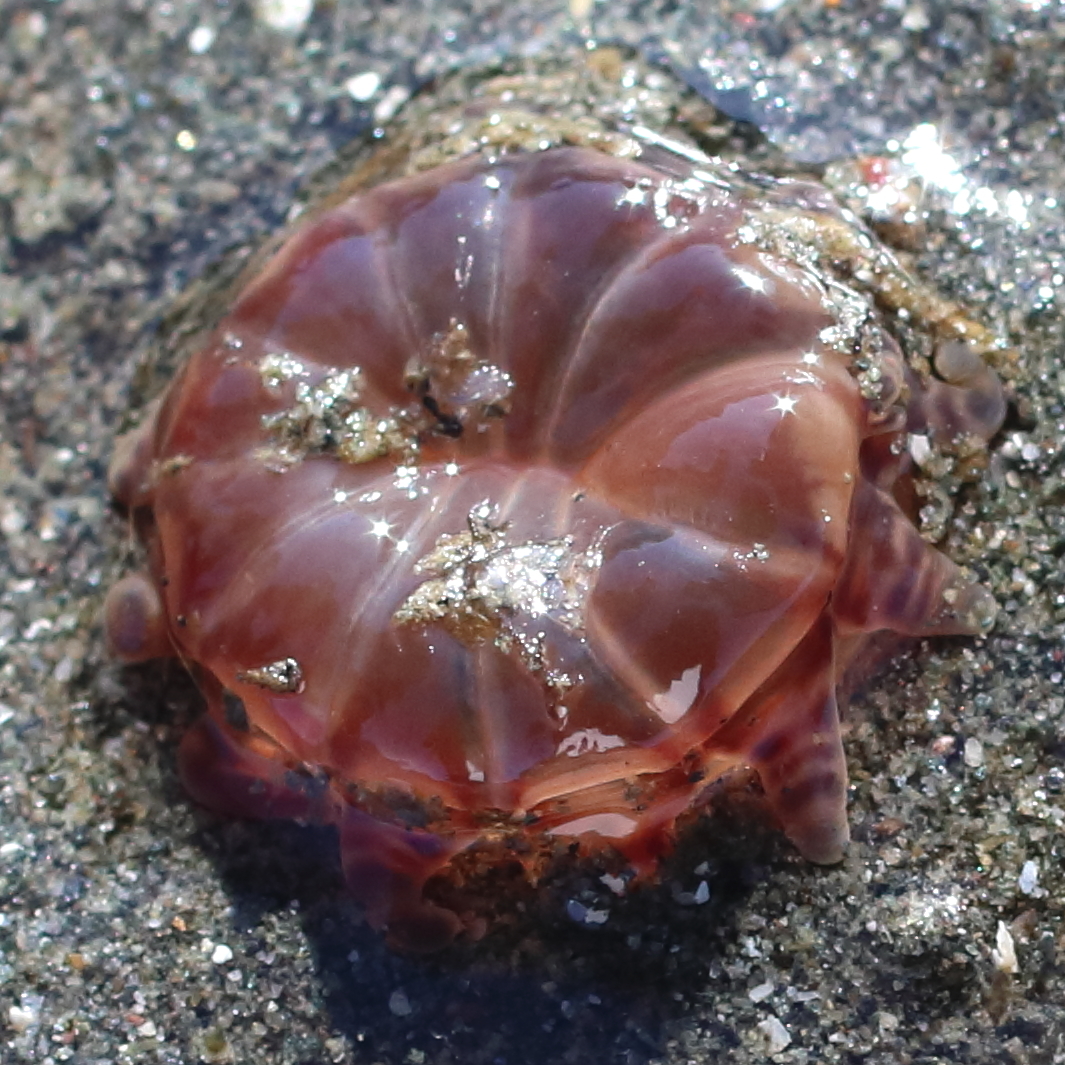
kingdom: Animalia
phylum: Cnidaria
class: Anthozoa
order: Actiniaria
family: Peachiidae
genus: Peachia
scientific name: Peachia quinquecapitata
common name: Twelve-tentacled parasitic anemone
